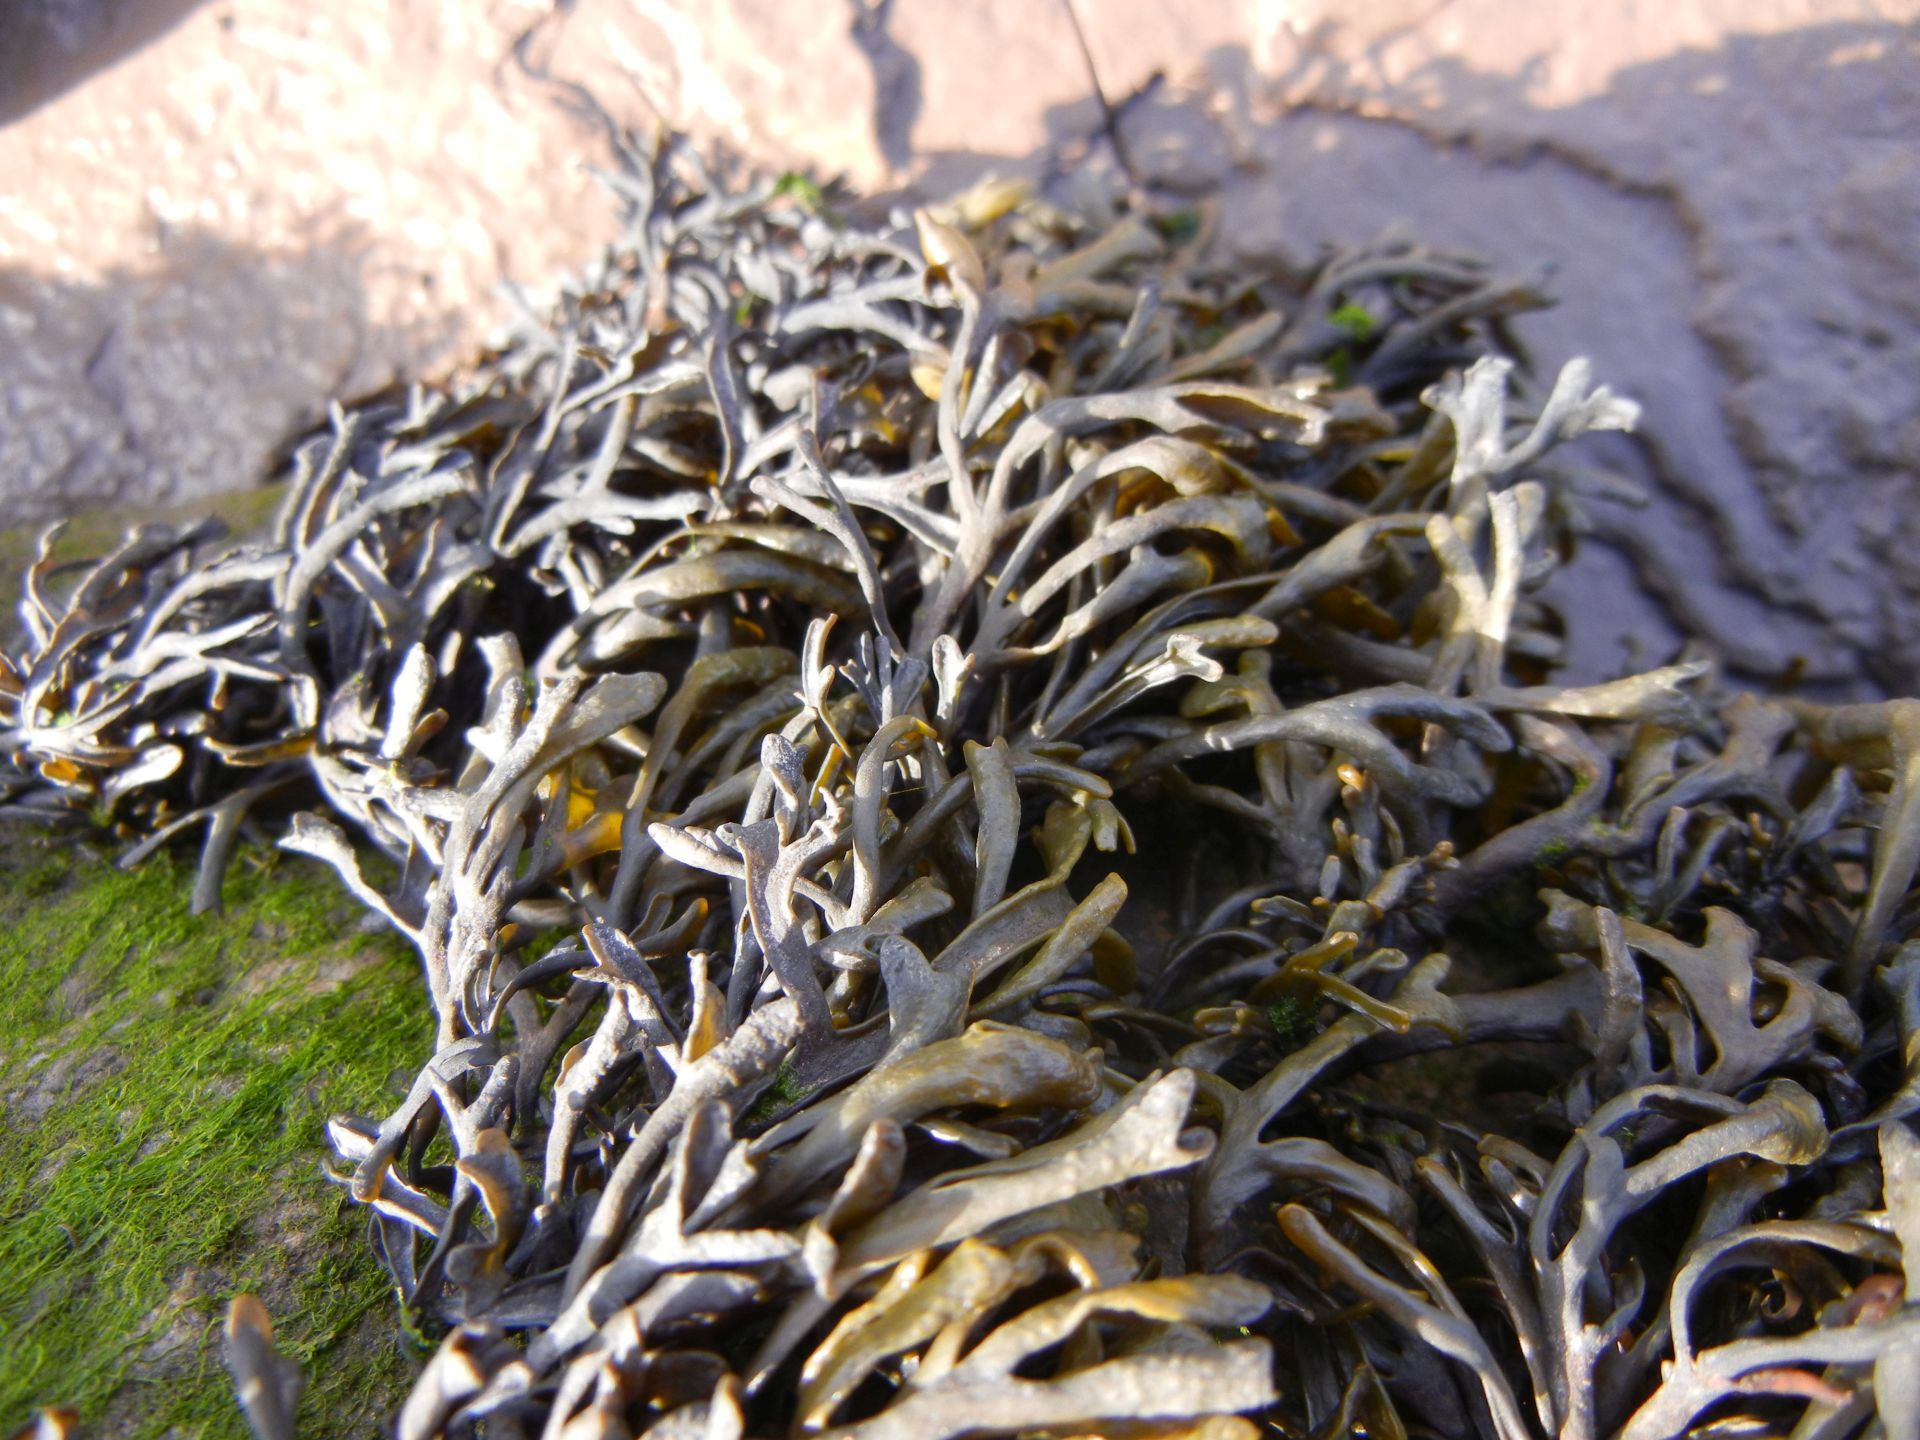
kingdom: Chromista
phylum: Ochrophyta
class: Phaeophyceae
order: Fucales
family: Fucaceae
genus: Pelvetia
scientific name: Pelvetia canaliculata
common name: Channelled wrack
